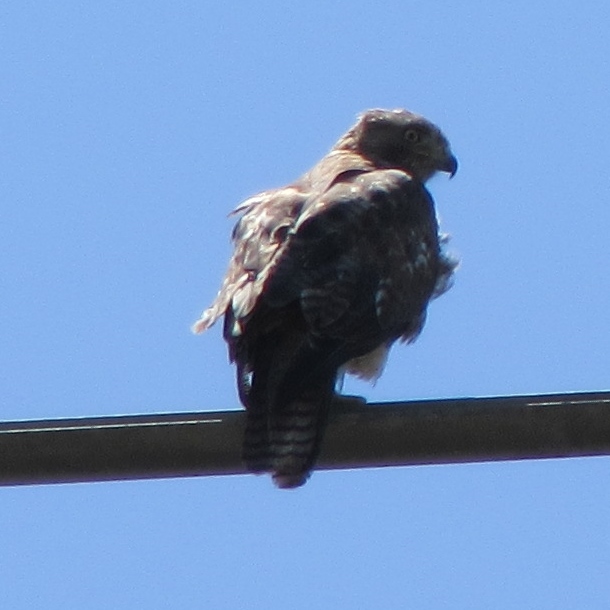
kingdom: Animalia
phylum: Chordata
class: Aves
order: Accipitriformes
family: Accipitridae
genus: Buteo
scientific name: Buteo jamaicensis
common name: Red-tailed hawk
